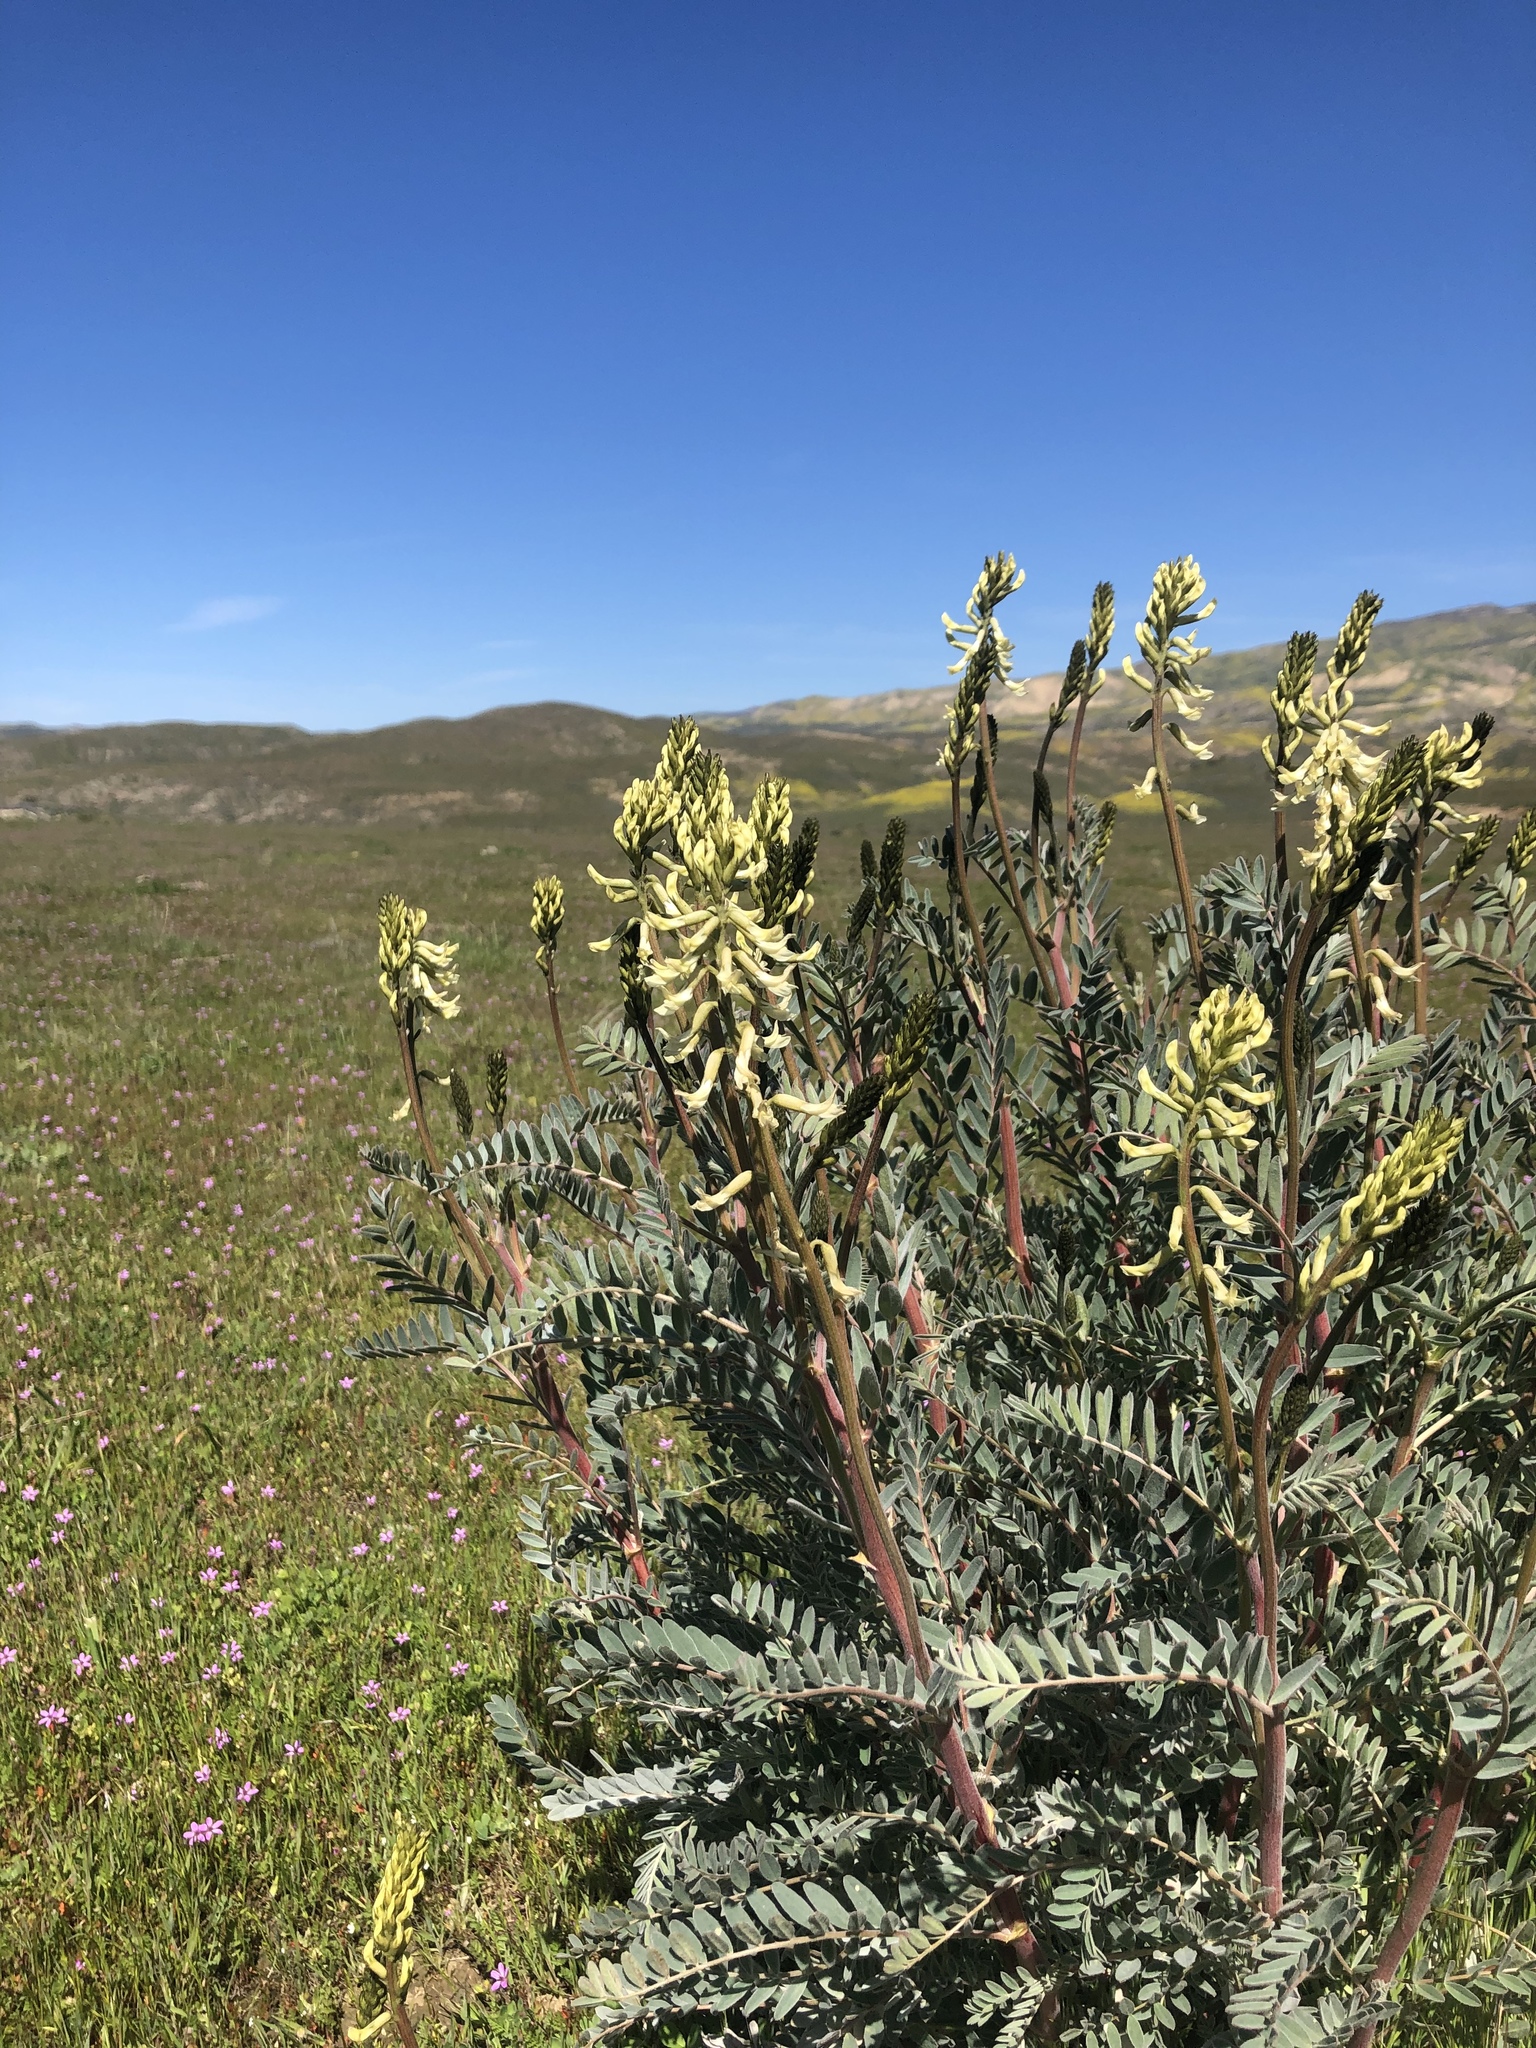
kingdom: Plantae
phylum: Tracheophyta
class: Magnoliopsida
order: Fabales
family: Fabaceae
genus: Astragalus
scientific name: Astragalus oxyphysus
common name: Stanislaus milk-vetch
